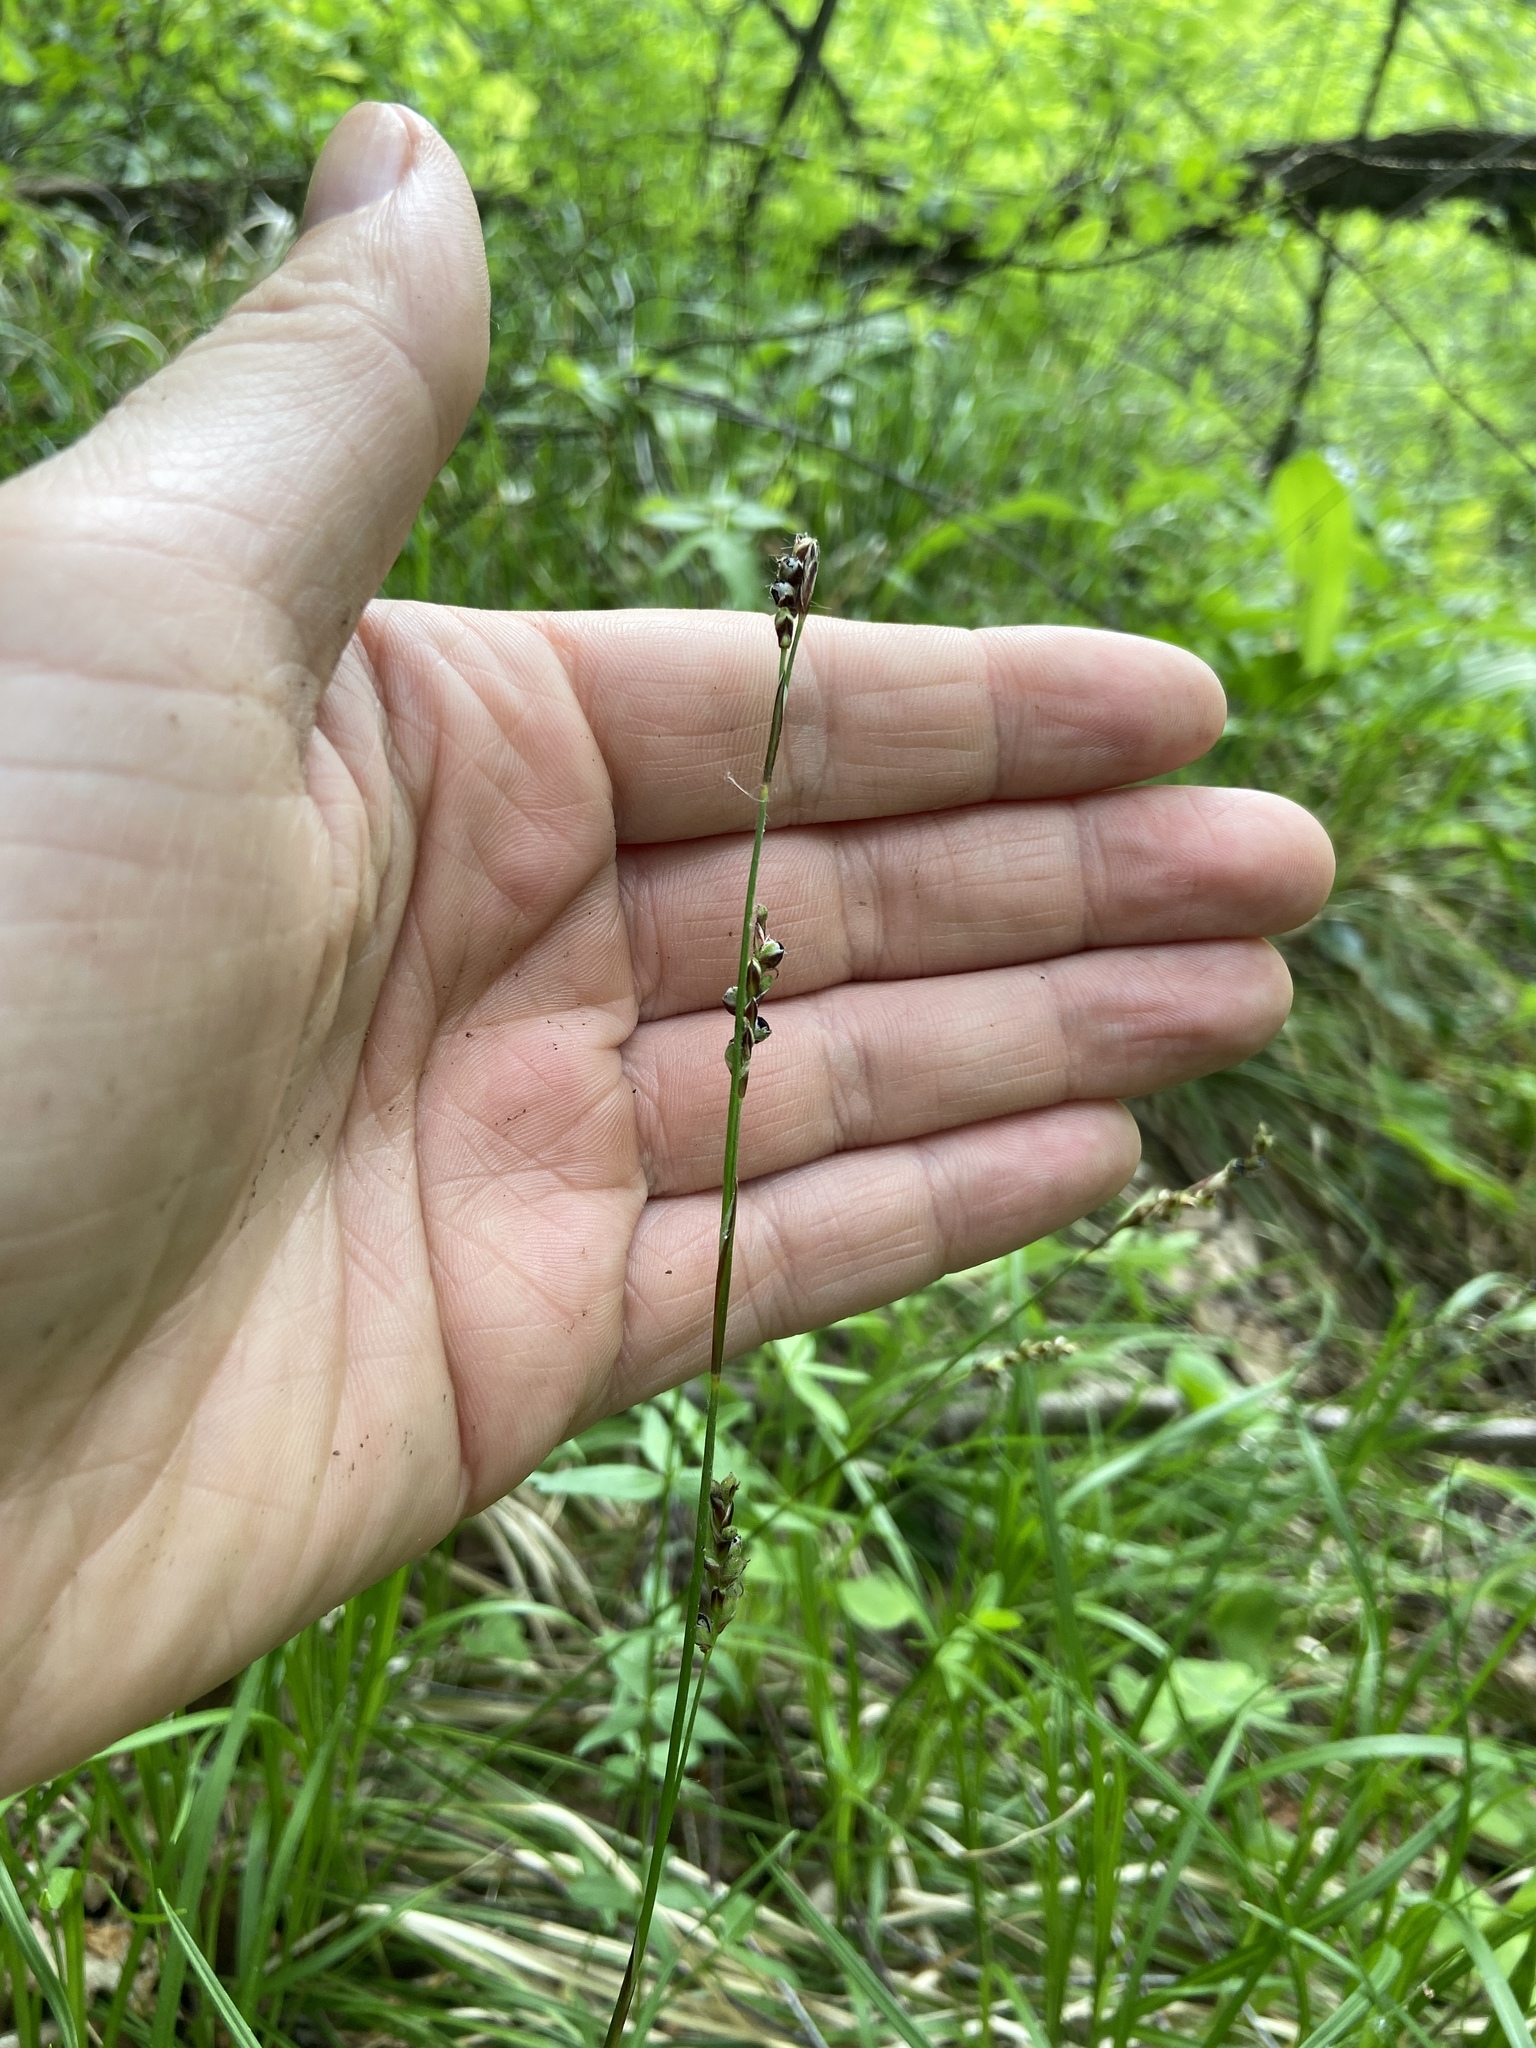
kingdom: Plantae
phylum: Tracheophyta
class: Liliopsida
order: Poales
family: Cyperaceae
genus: Carex
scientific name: Carex rhizina
